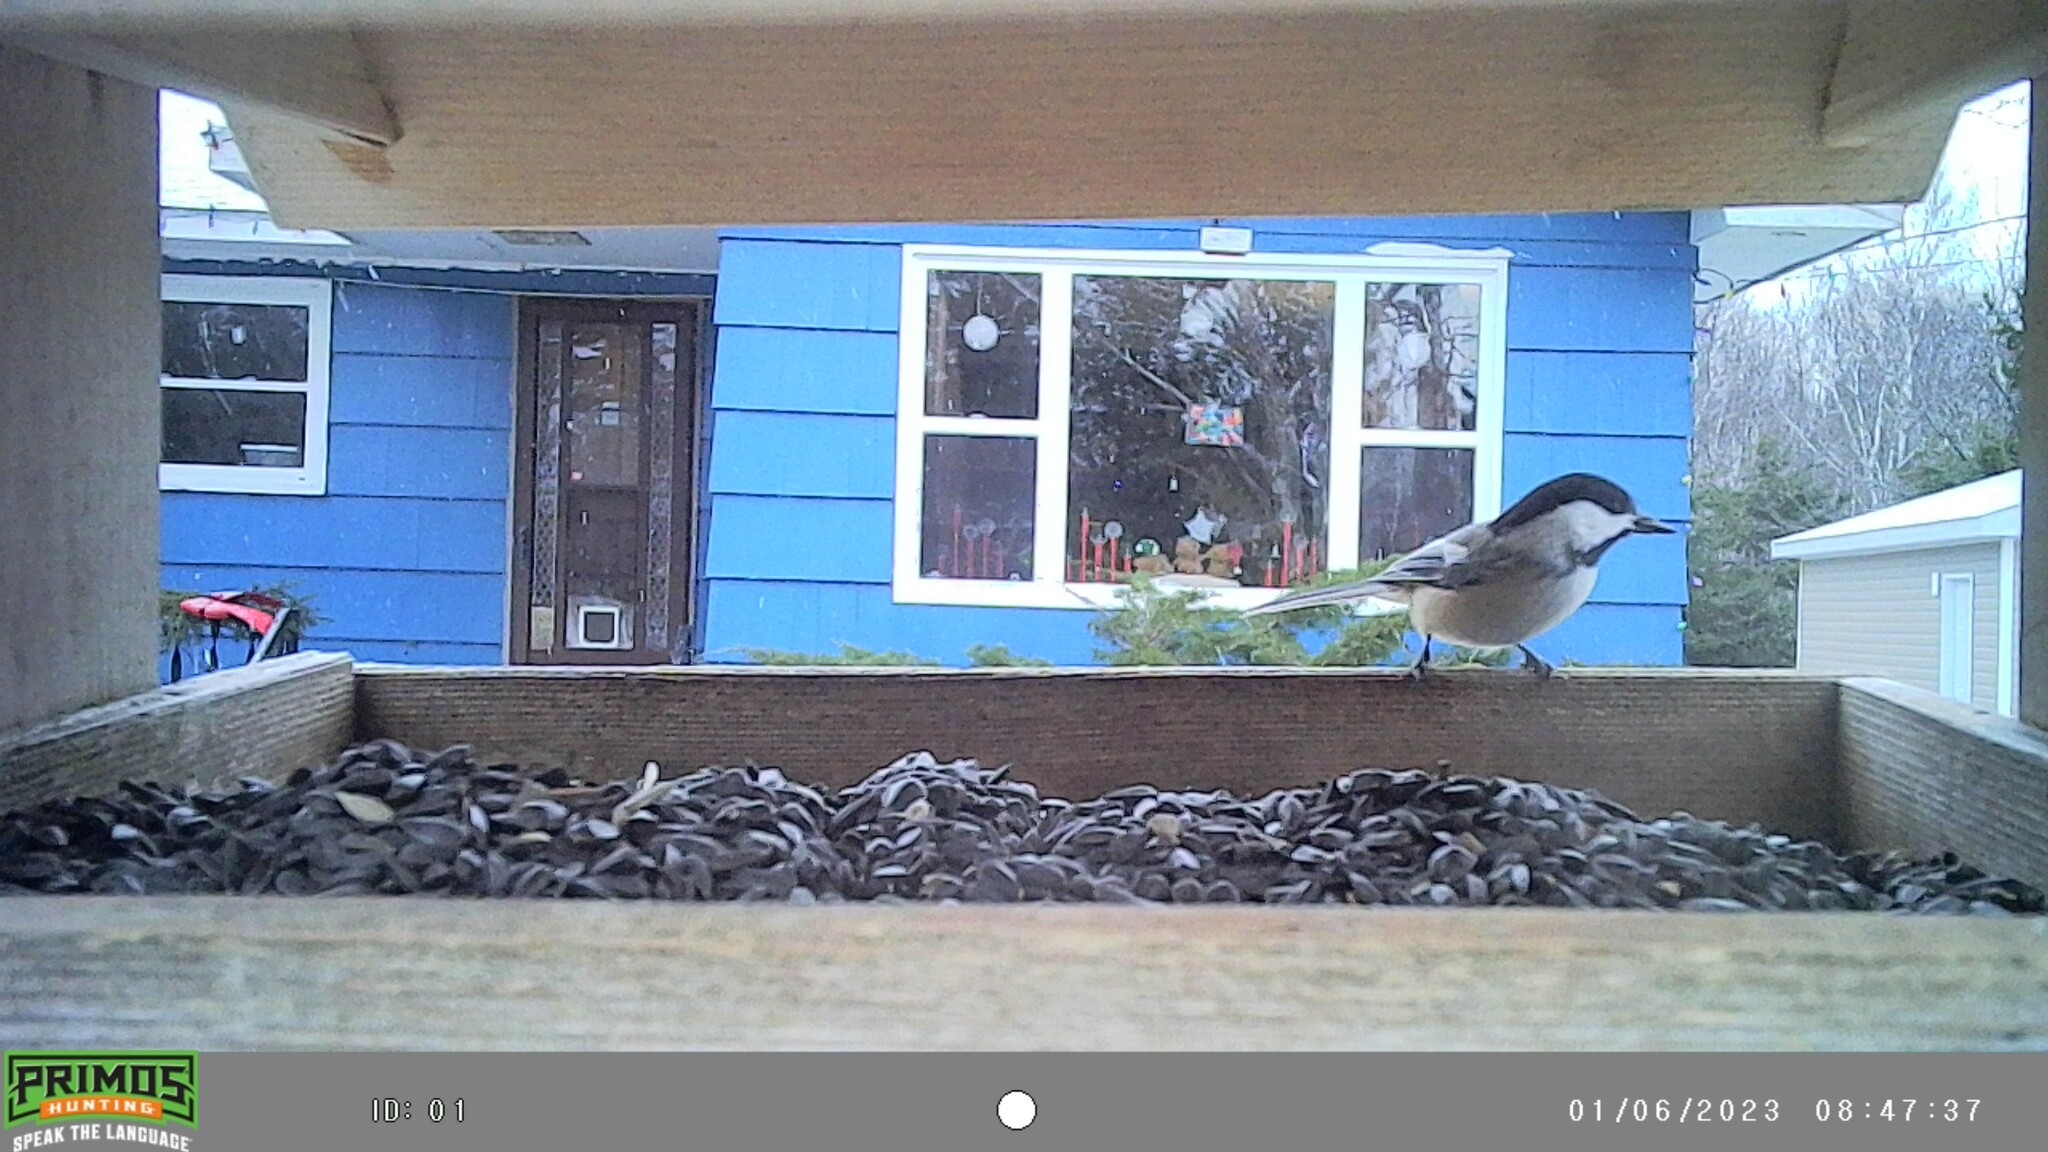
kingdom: Animalia
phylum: Chordata
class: Aves
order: Passeriformes
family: Paridae
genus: Poecile
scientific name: Poecile atricapillus
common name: Black-capped chickadee
